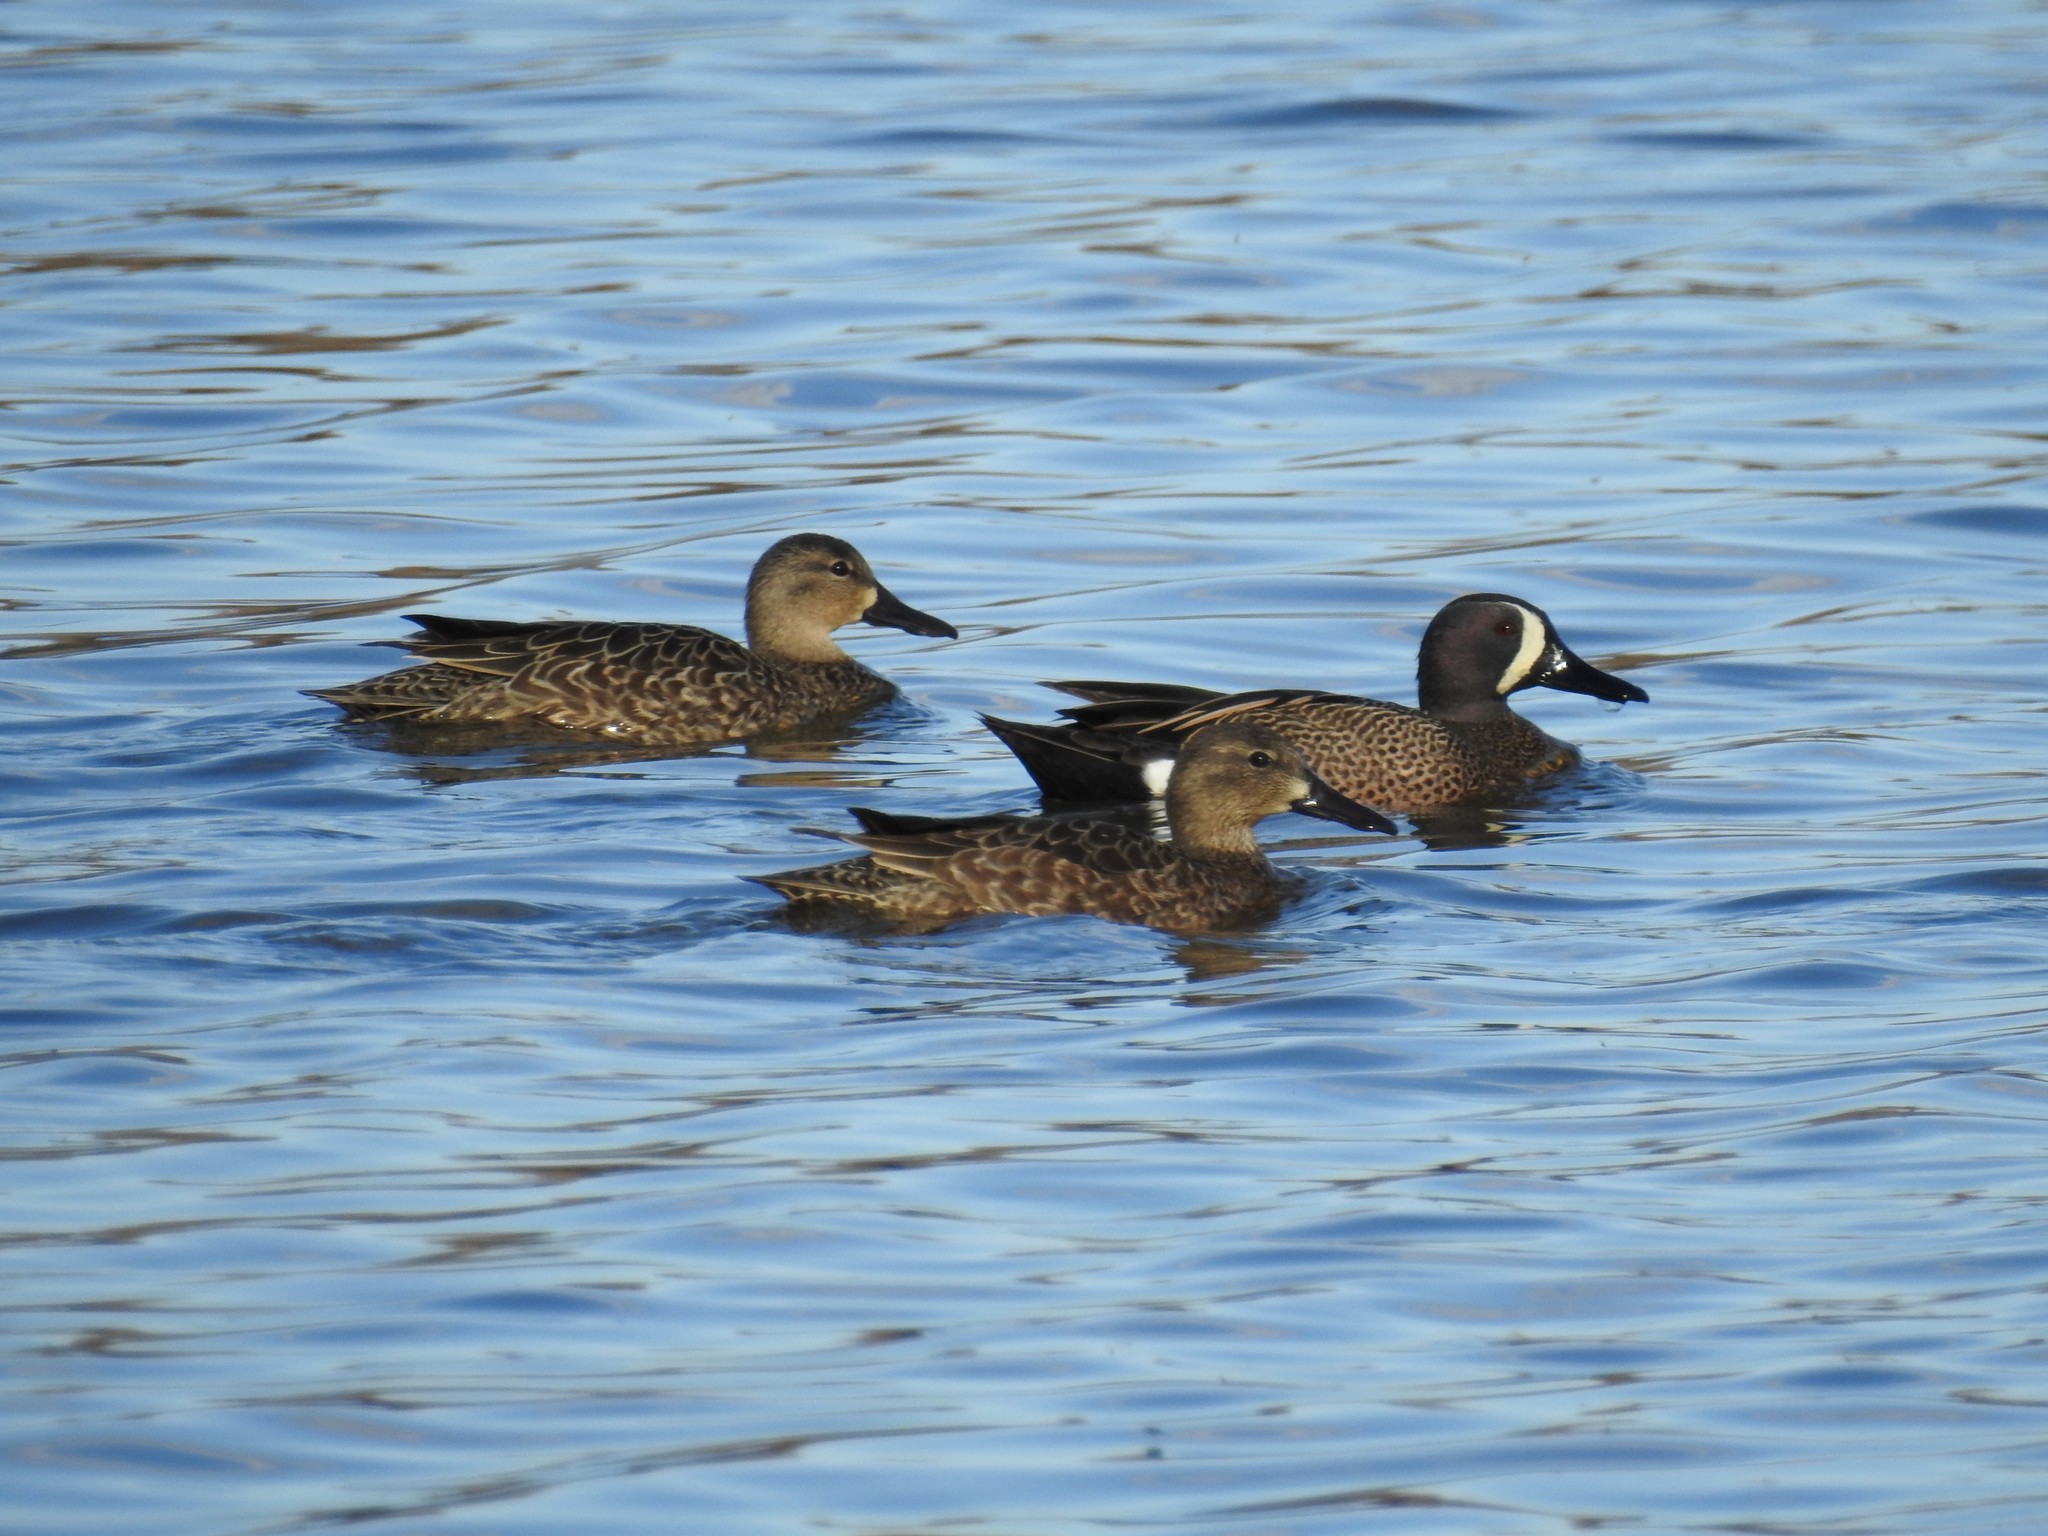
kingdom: Animalia
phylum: Chordata
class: Aves
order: Anseriformes
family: Anatidae
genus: Spatula
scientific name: Spatula discors
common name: Blue-winged teal
